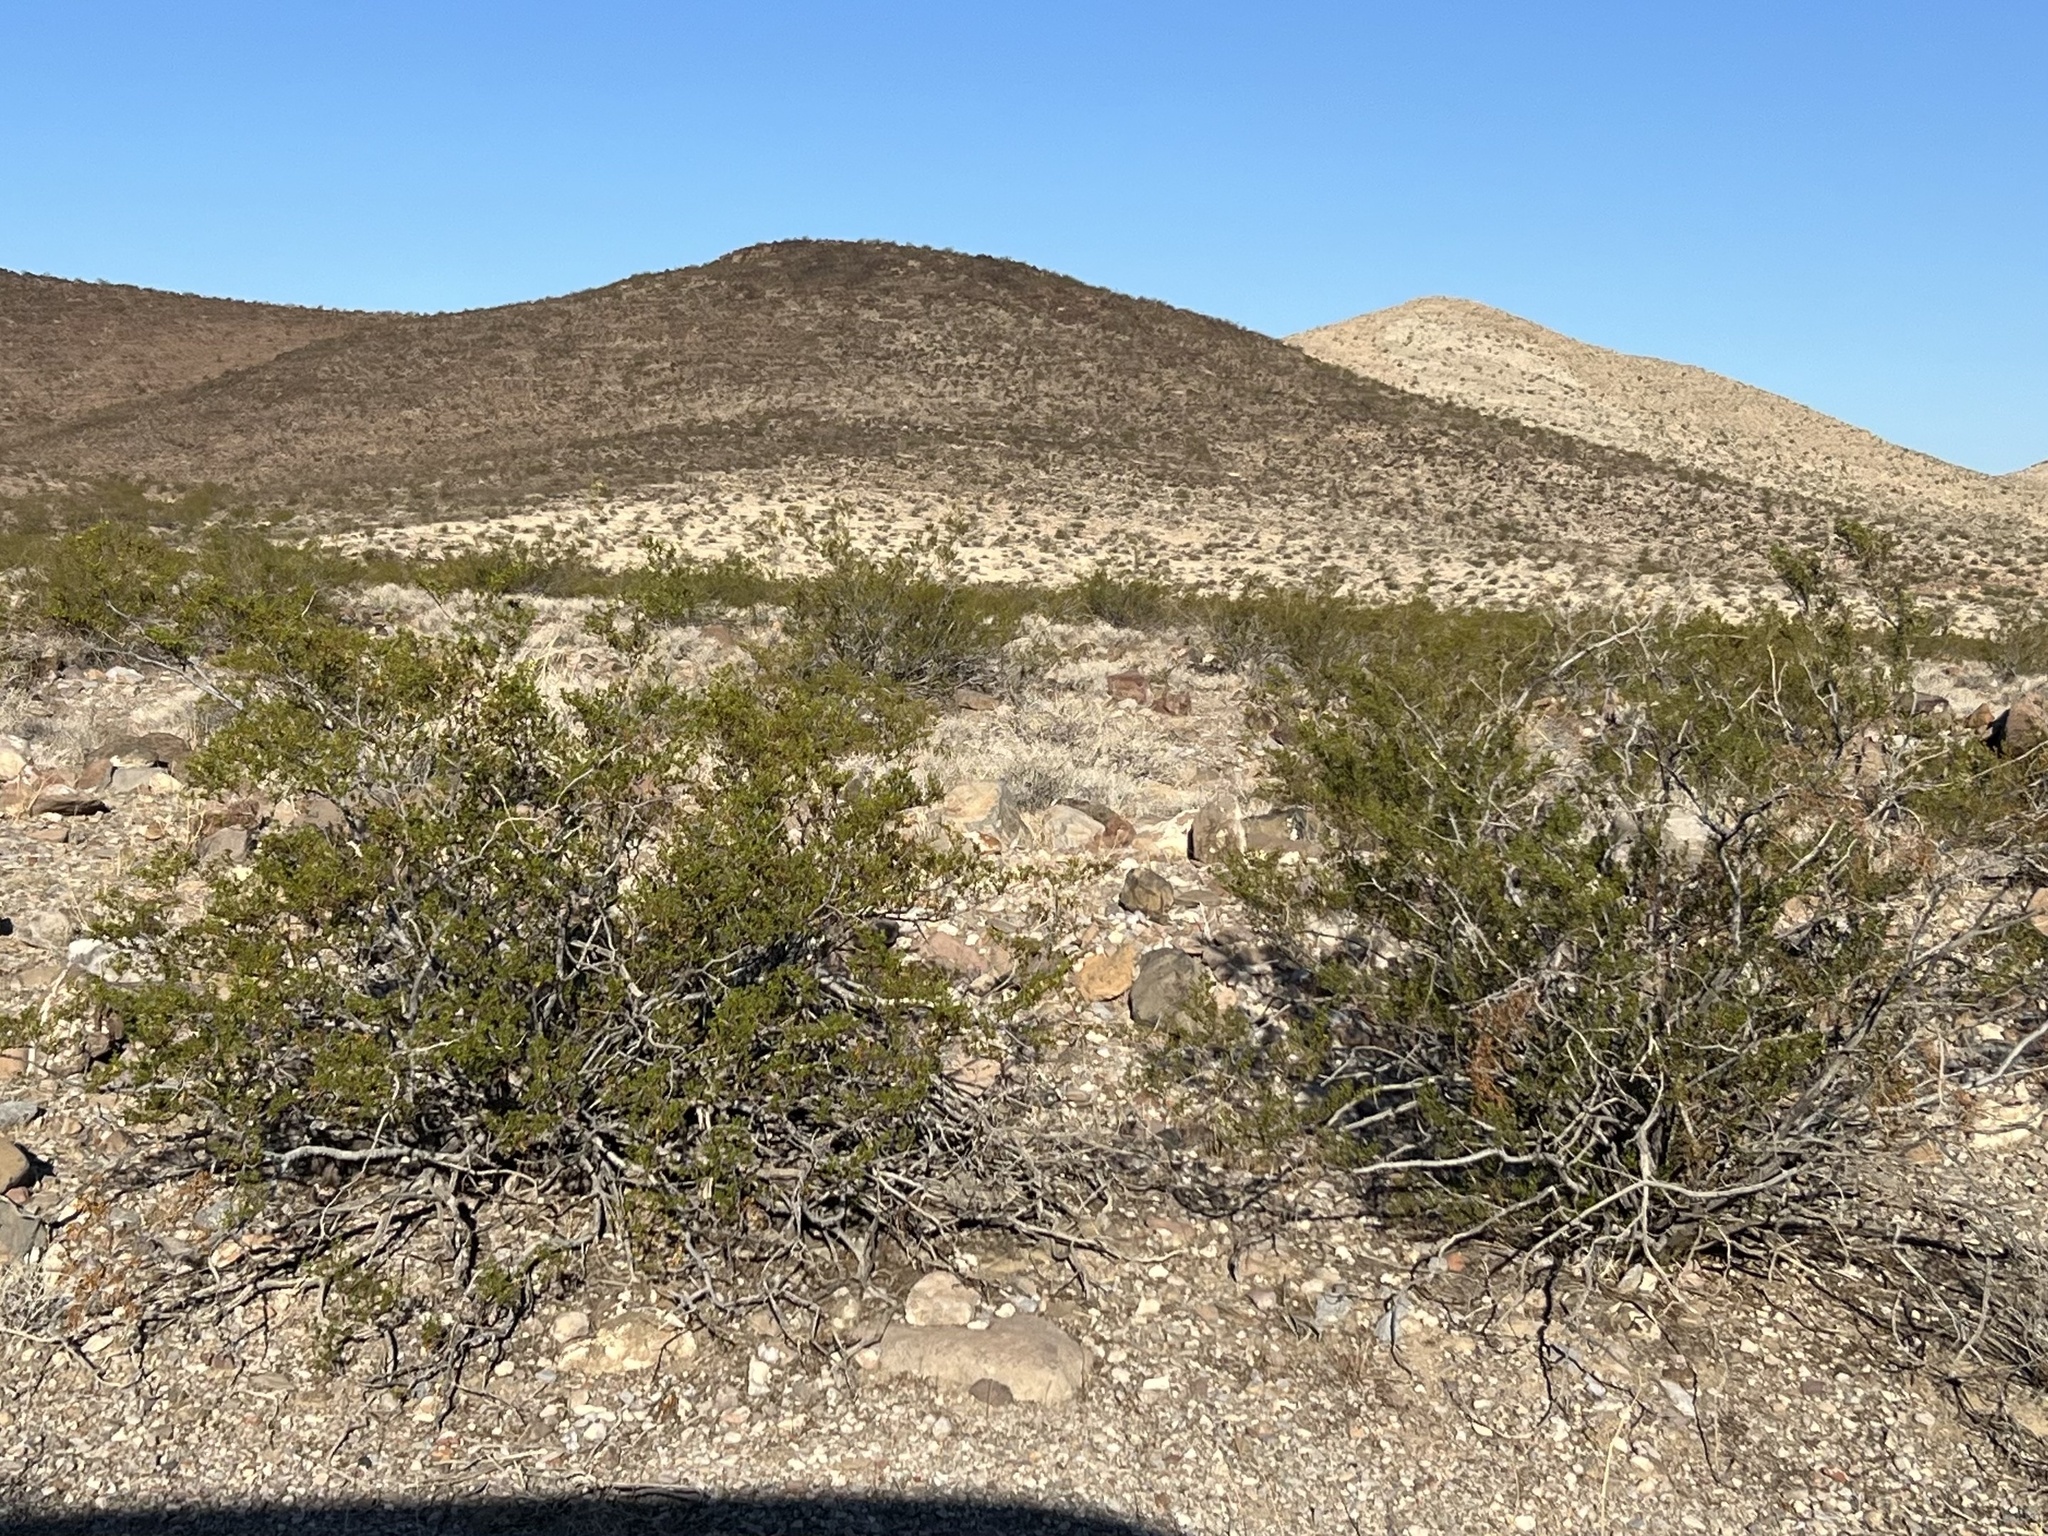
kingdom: Plantae
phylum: Tracheophyta
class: Magnoliopsida
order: Zygophyllales
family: Zygophyllaceae
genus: Larrea
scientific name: Larrea tridentata
